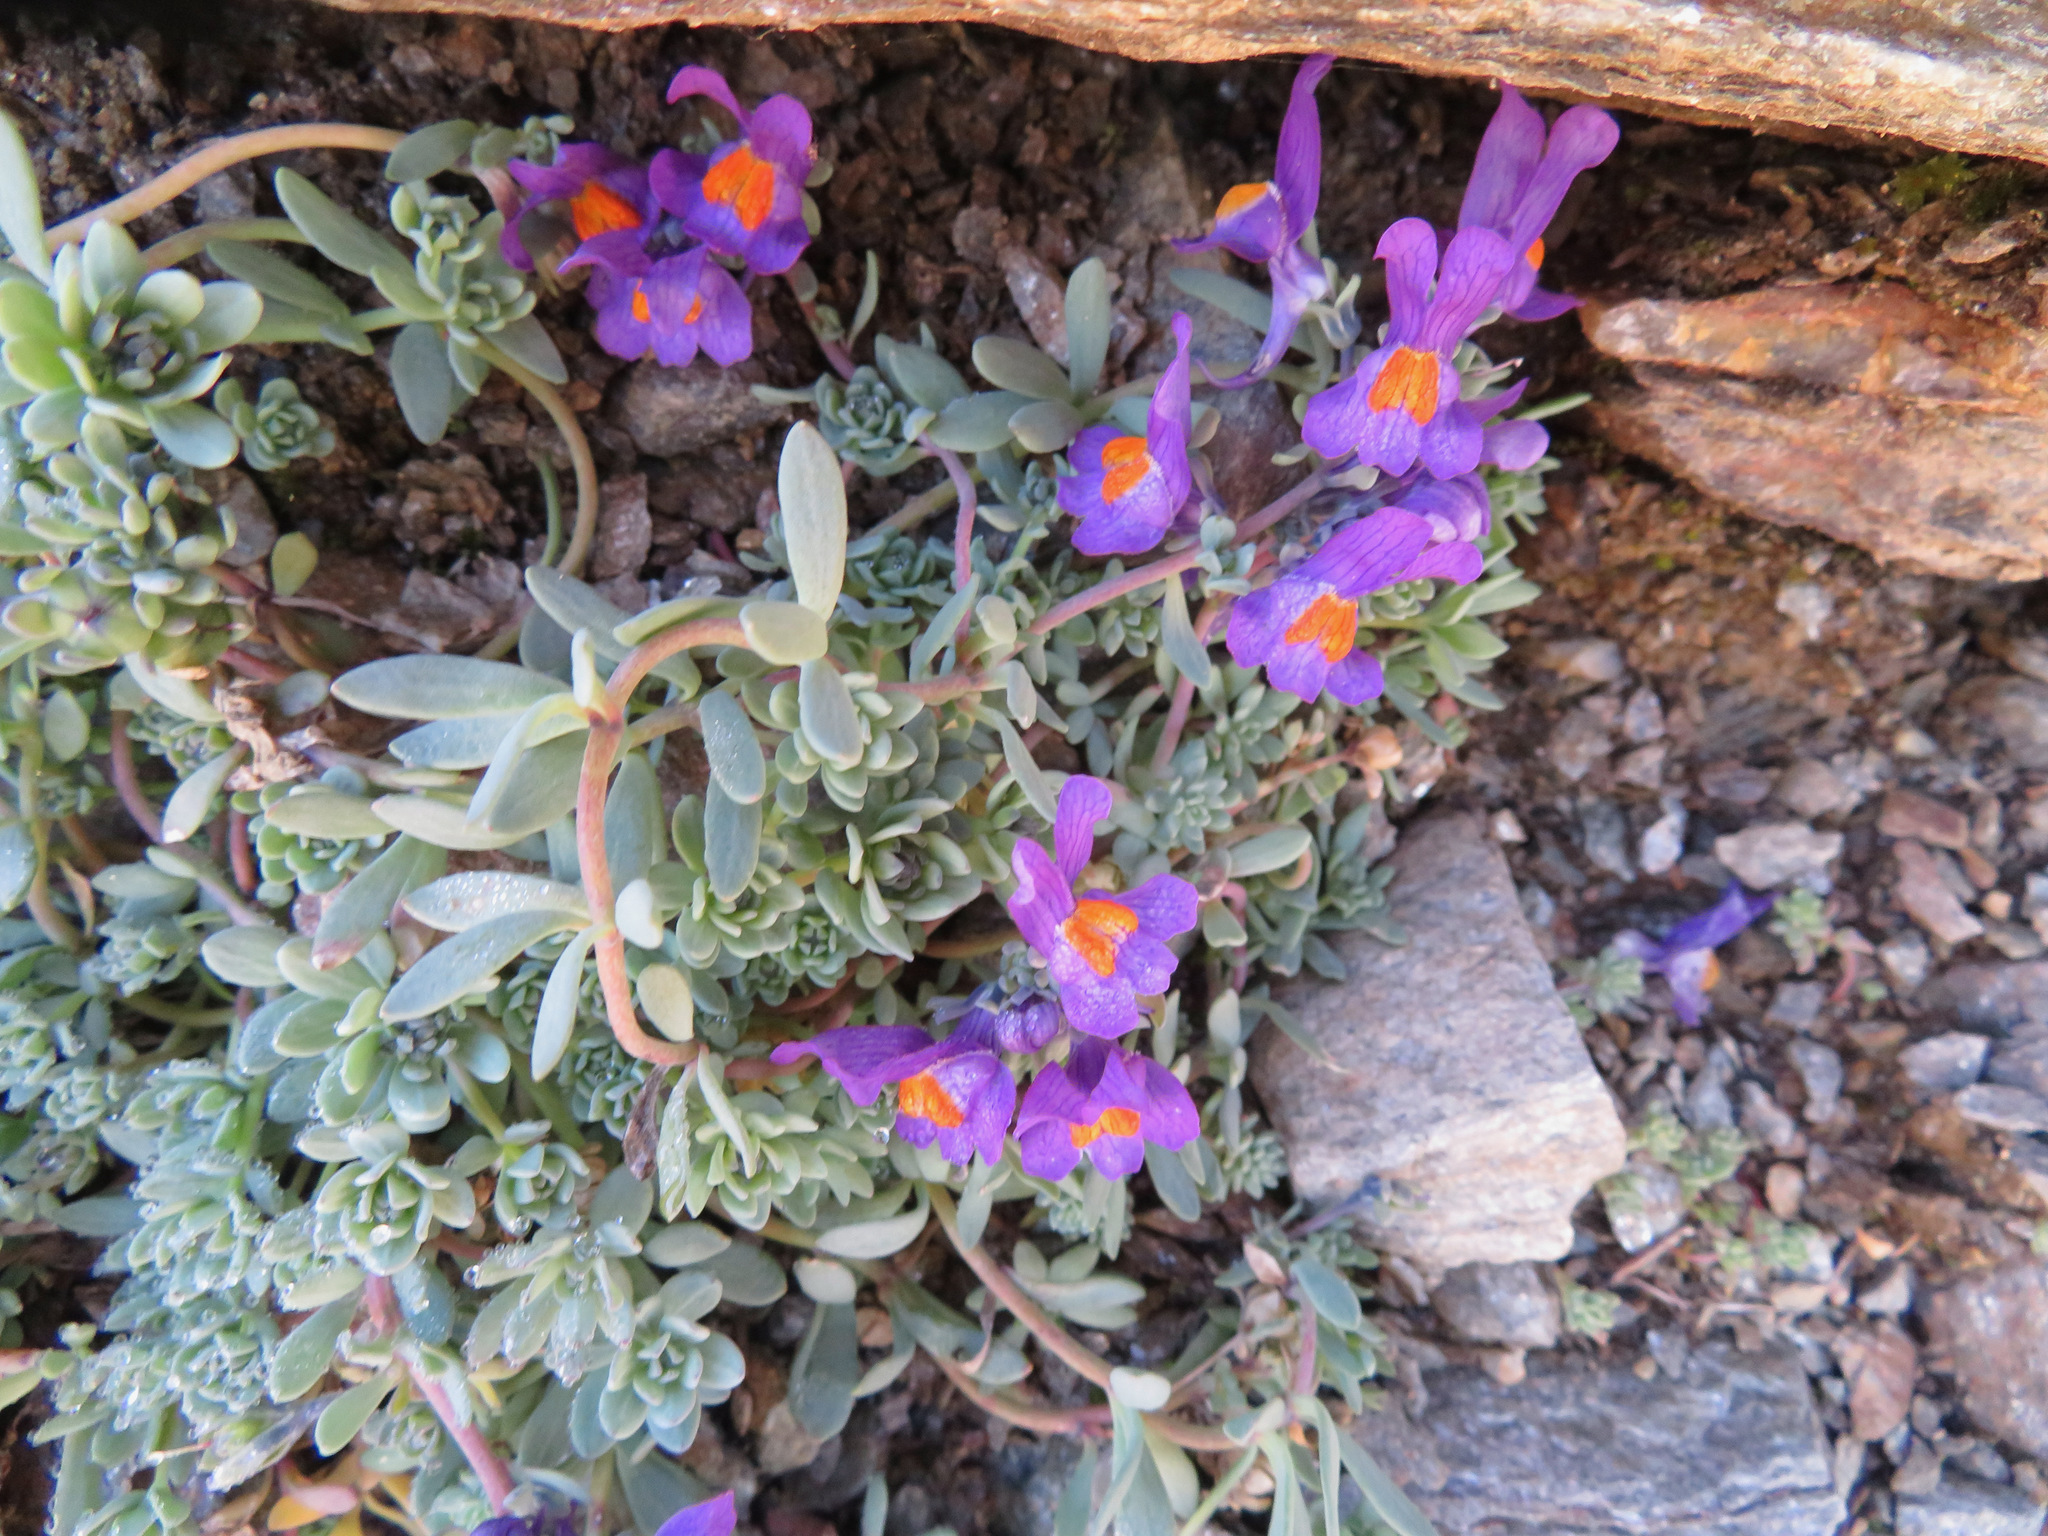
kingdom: Plantae
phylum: Tracheophyta
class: Magnoliopsida
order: Lamiales
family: Plantaginaceae
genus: Linaria
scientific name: Linaria alpina
